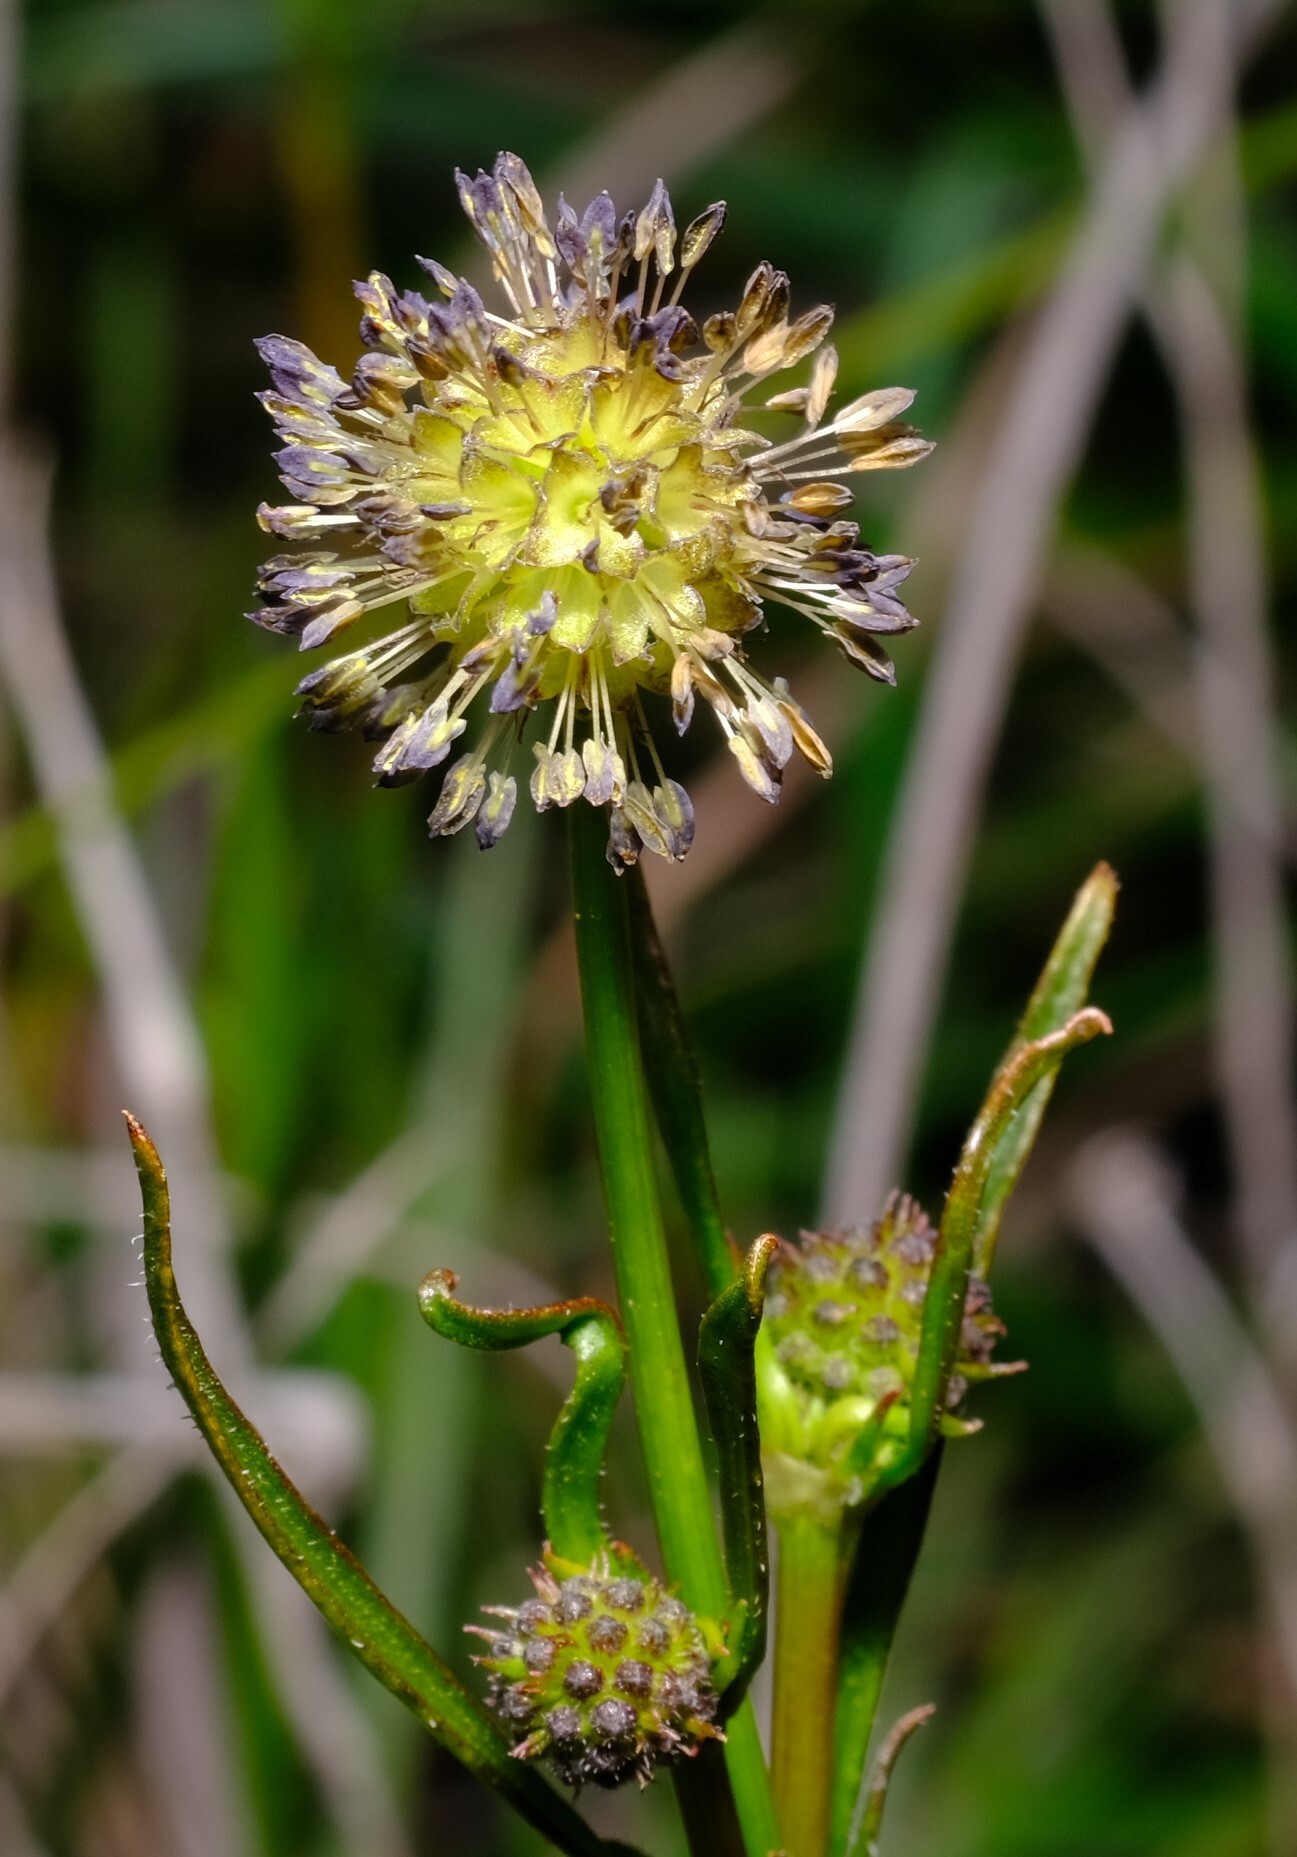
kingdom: Plantae
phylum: Tracheophyta
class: Magnoliopsida
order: Gentianales
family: Rubiaceae
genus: Opercularia
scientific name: Opercularia vaginata
